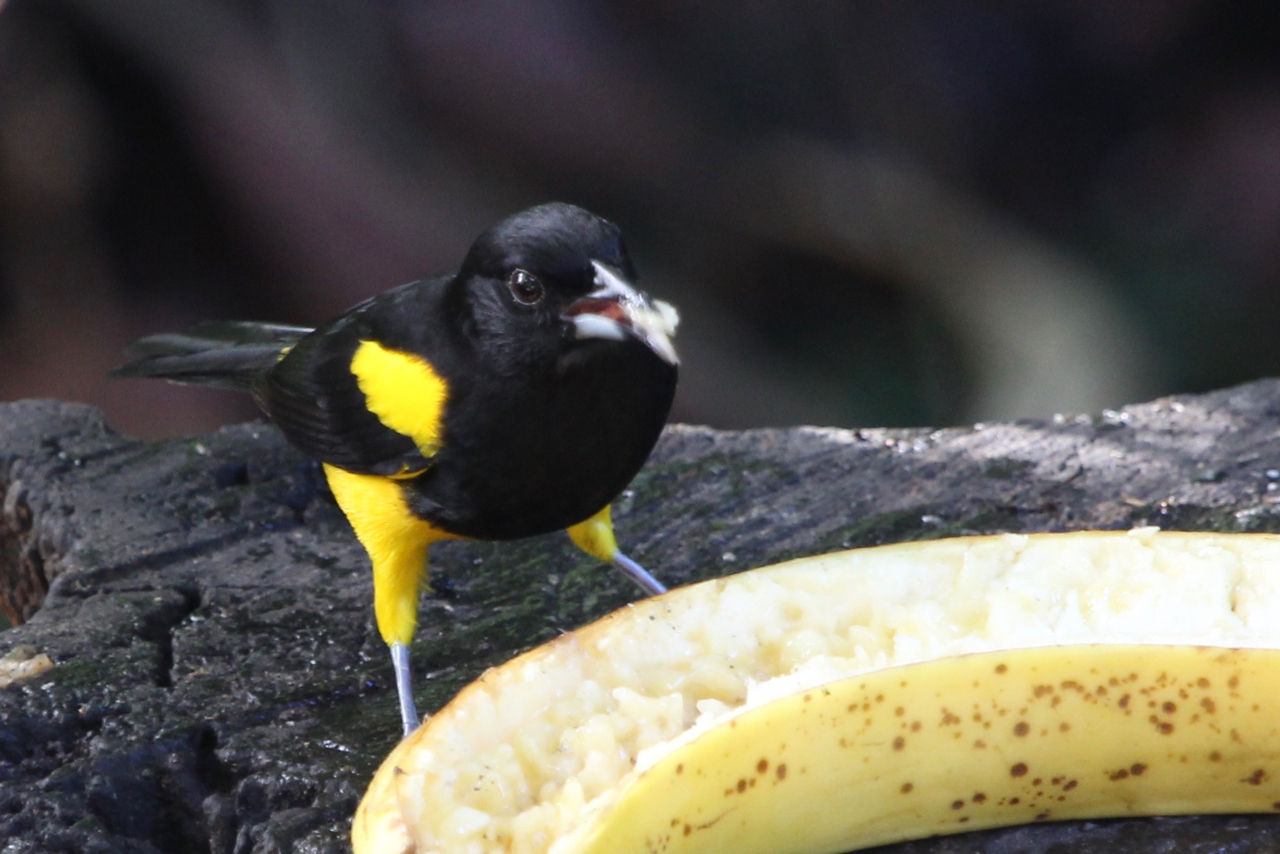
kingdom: Animalia
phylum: Chordata
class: Aves
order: Passeriformes
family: Icteridae
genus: Icterus
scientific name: Icterus prosthemelas
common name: Black-cowled oriole
